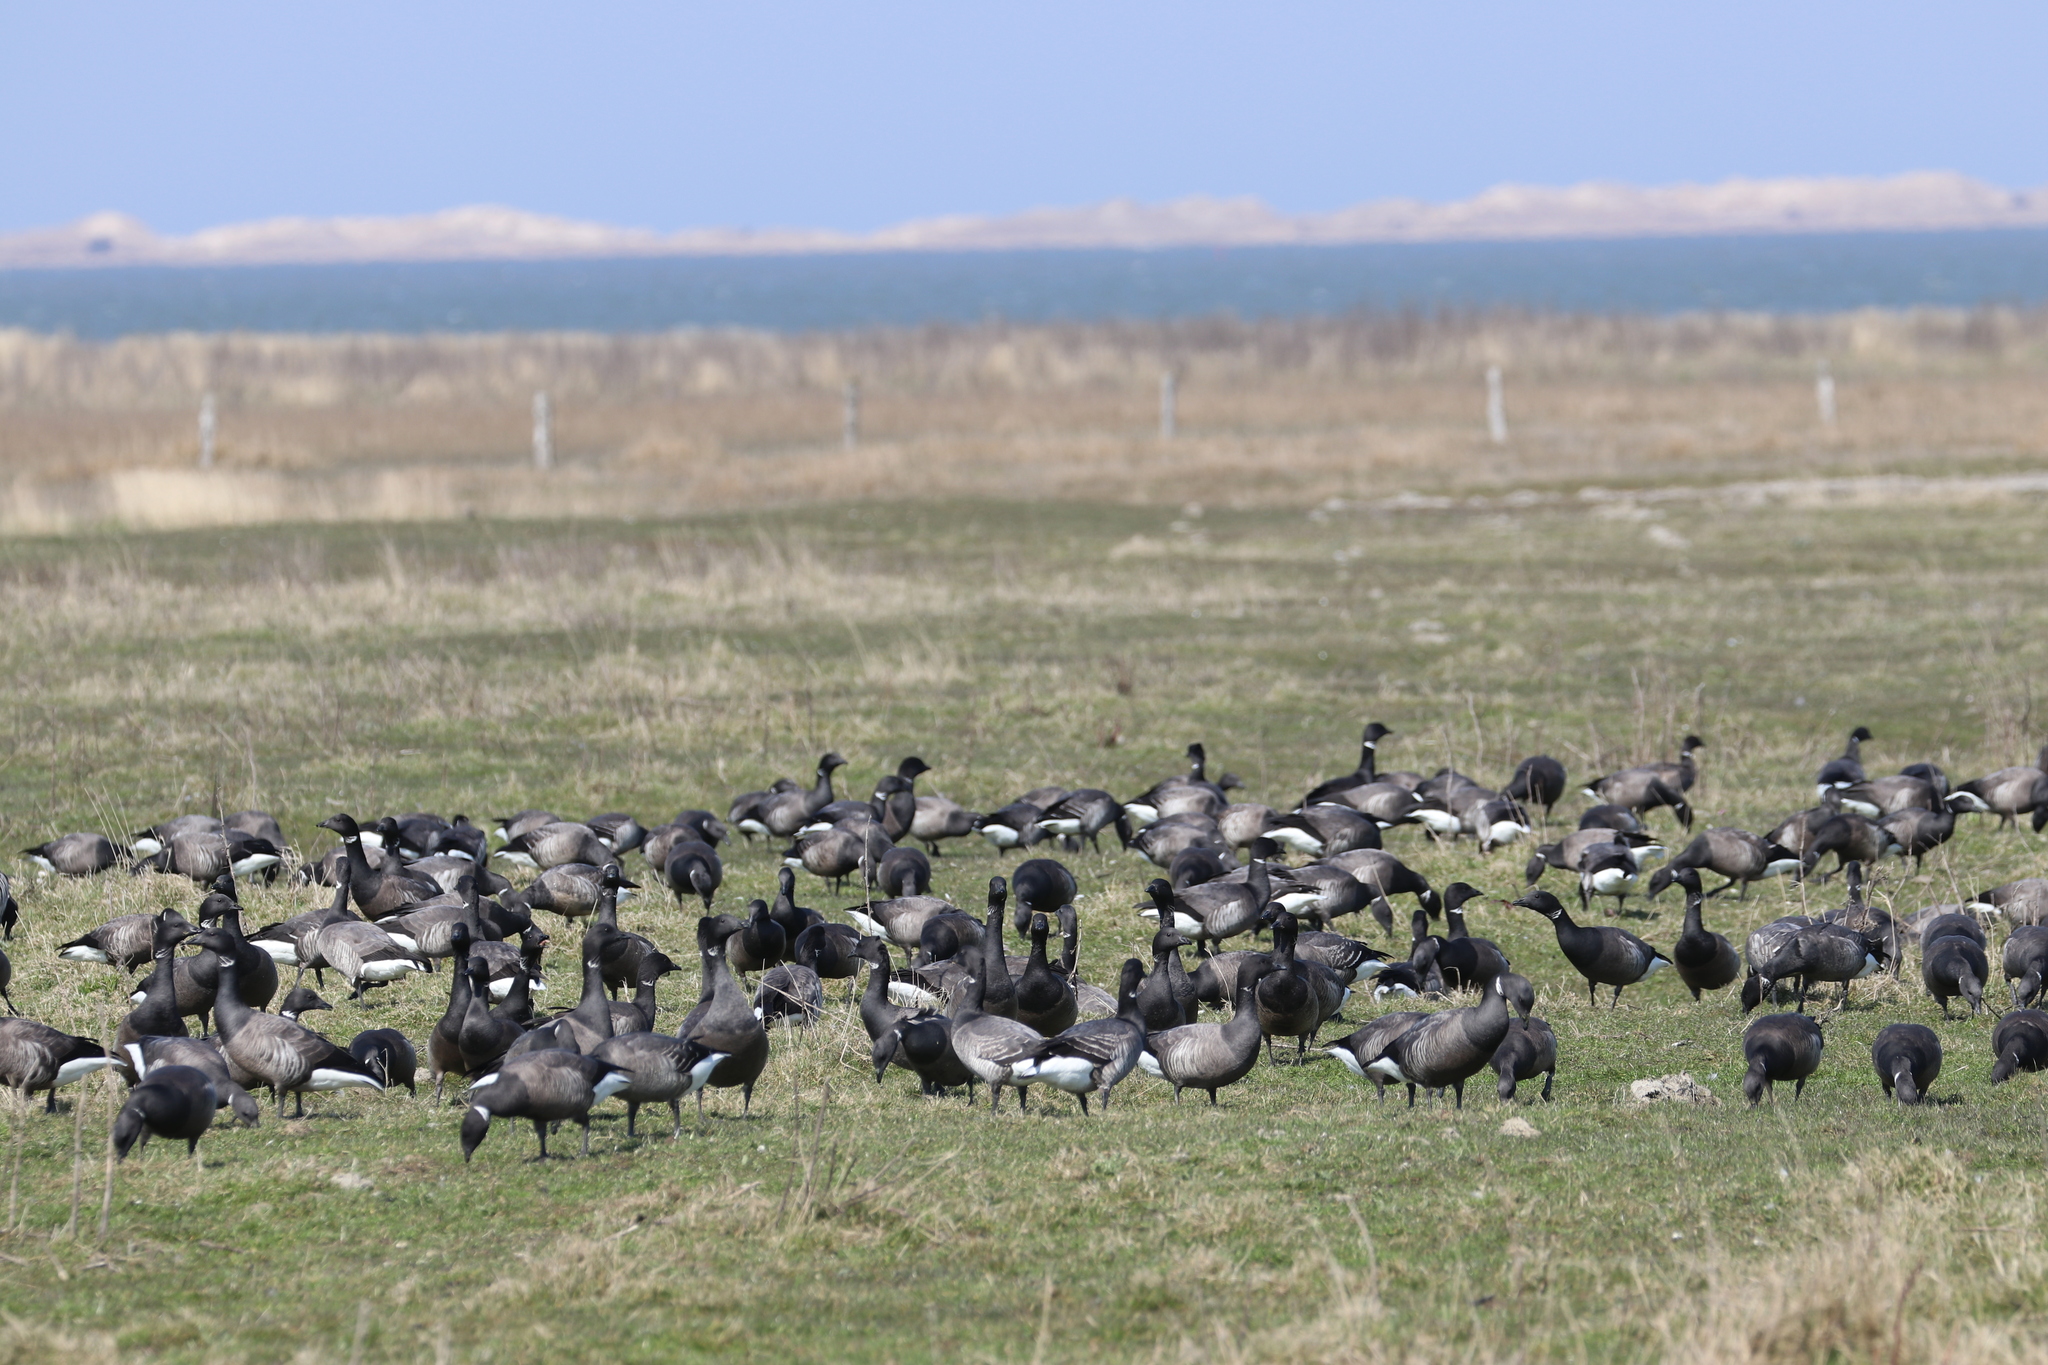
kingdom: Animalia
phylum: Chordata
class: Aves
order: Anseriformes
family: Anatidae
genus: Branta
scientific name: Branta bernicla
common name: Brant goose
